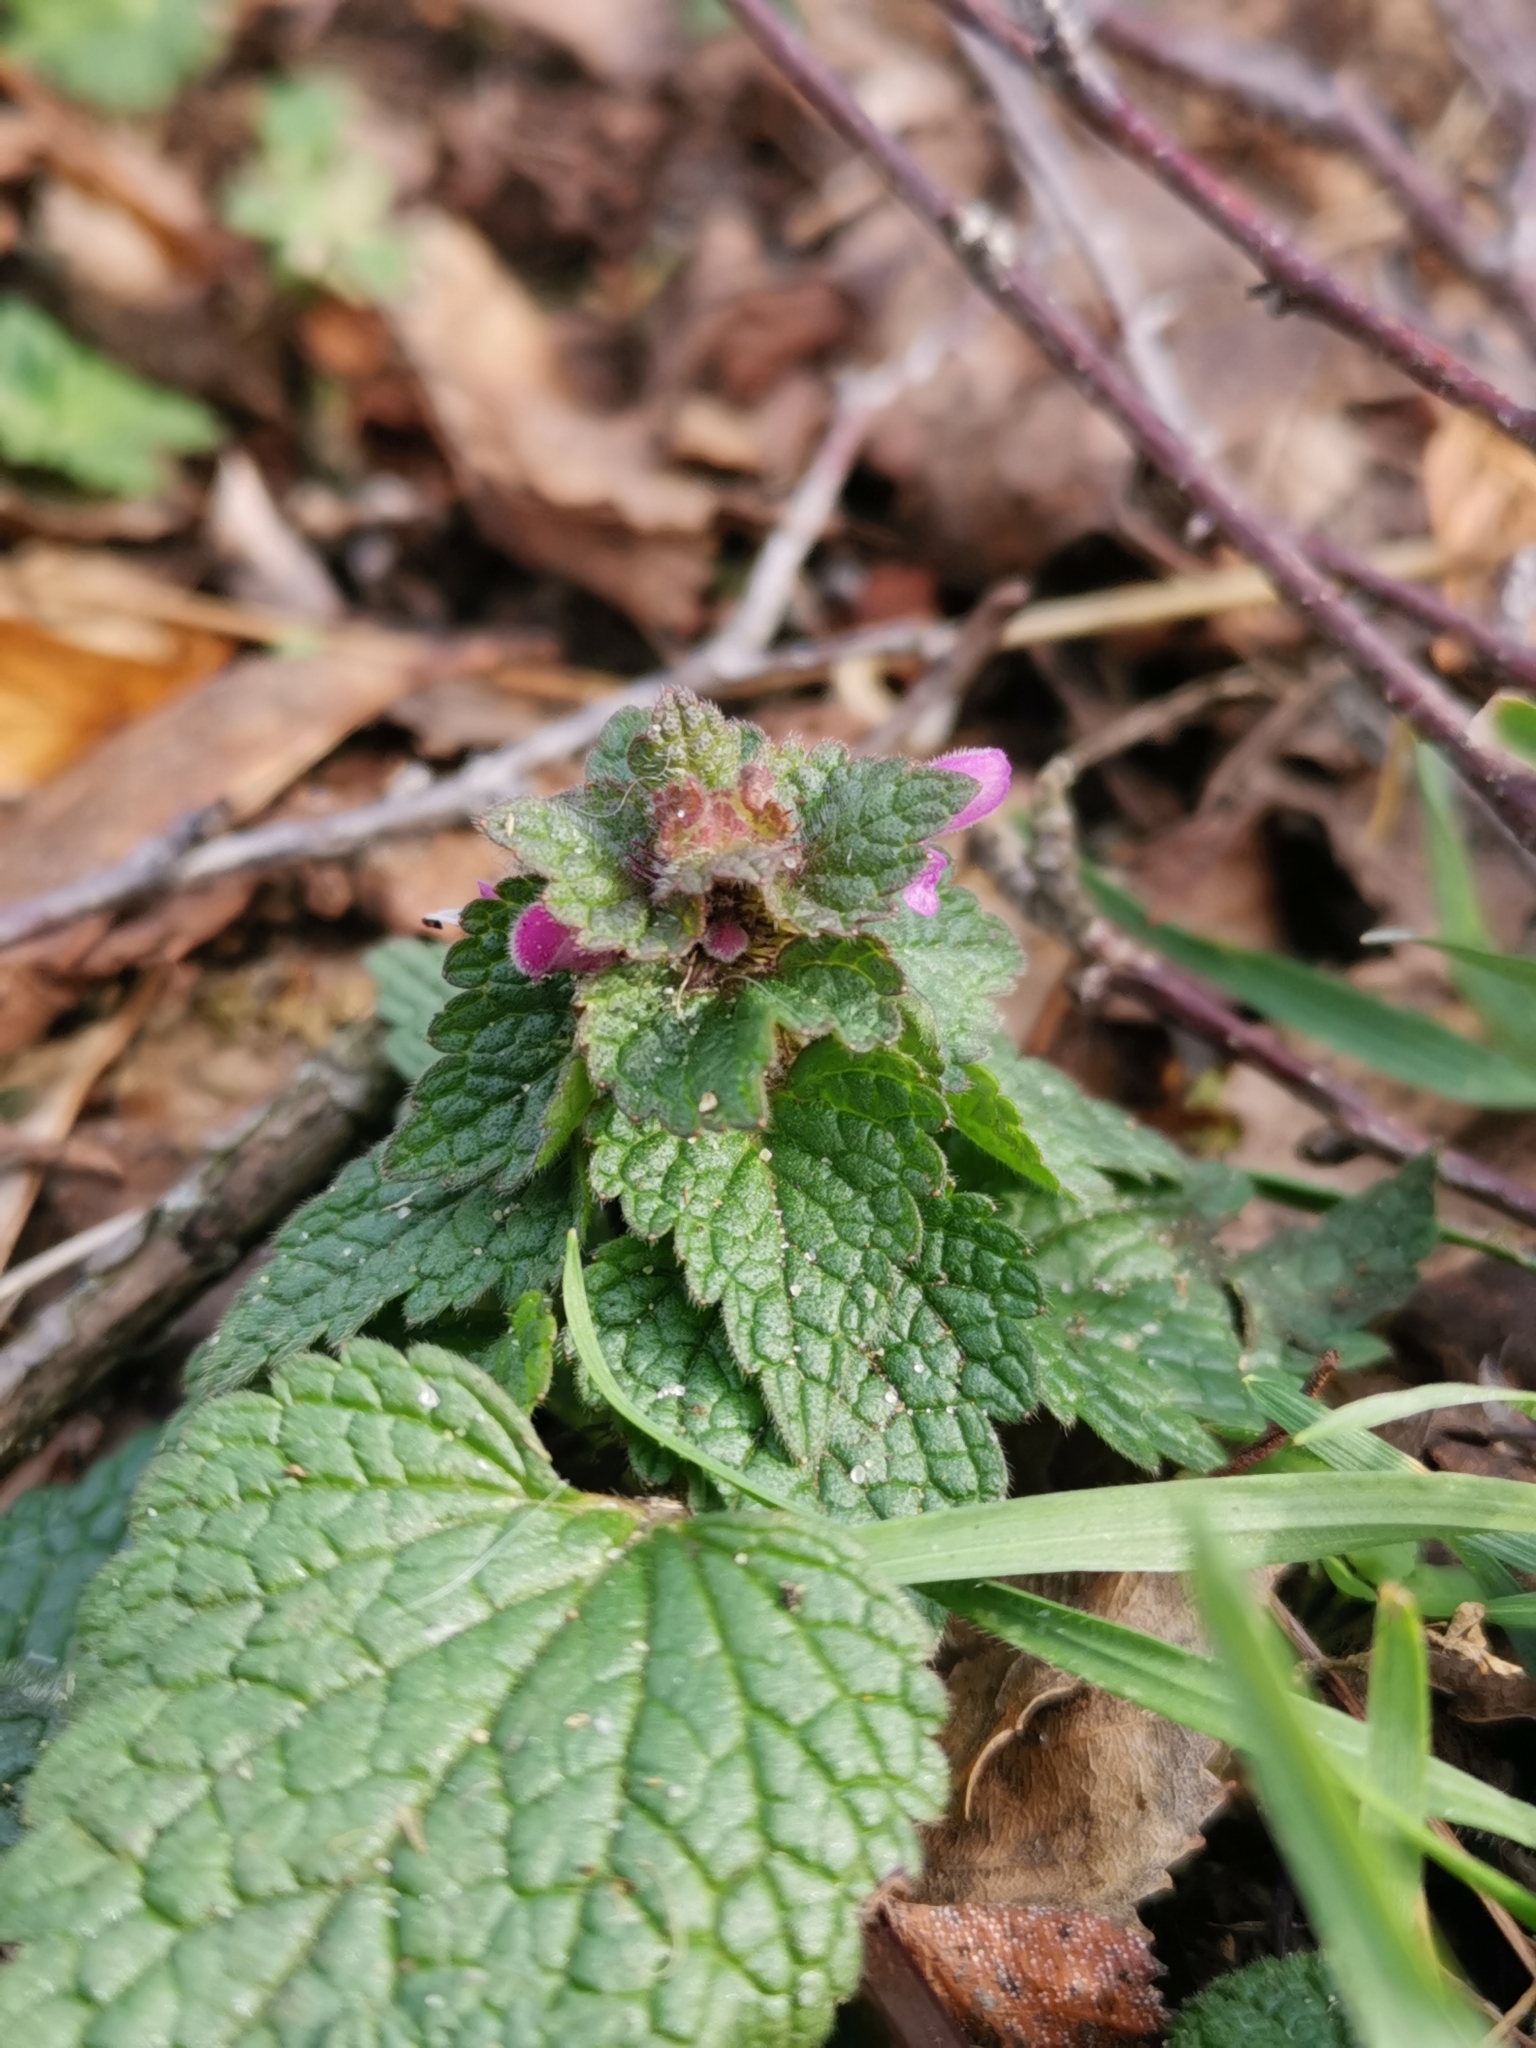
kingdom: Plantae
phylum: Tracheophyta
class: Magnoliopsida
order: Lamiales
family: Lamiaceae
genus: Lamium
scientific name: Lamium purpureum
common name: Red dead-nettle
